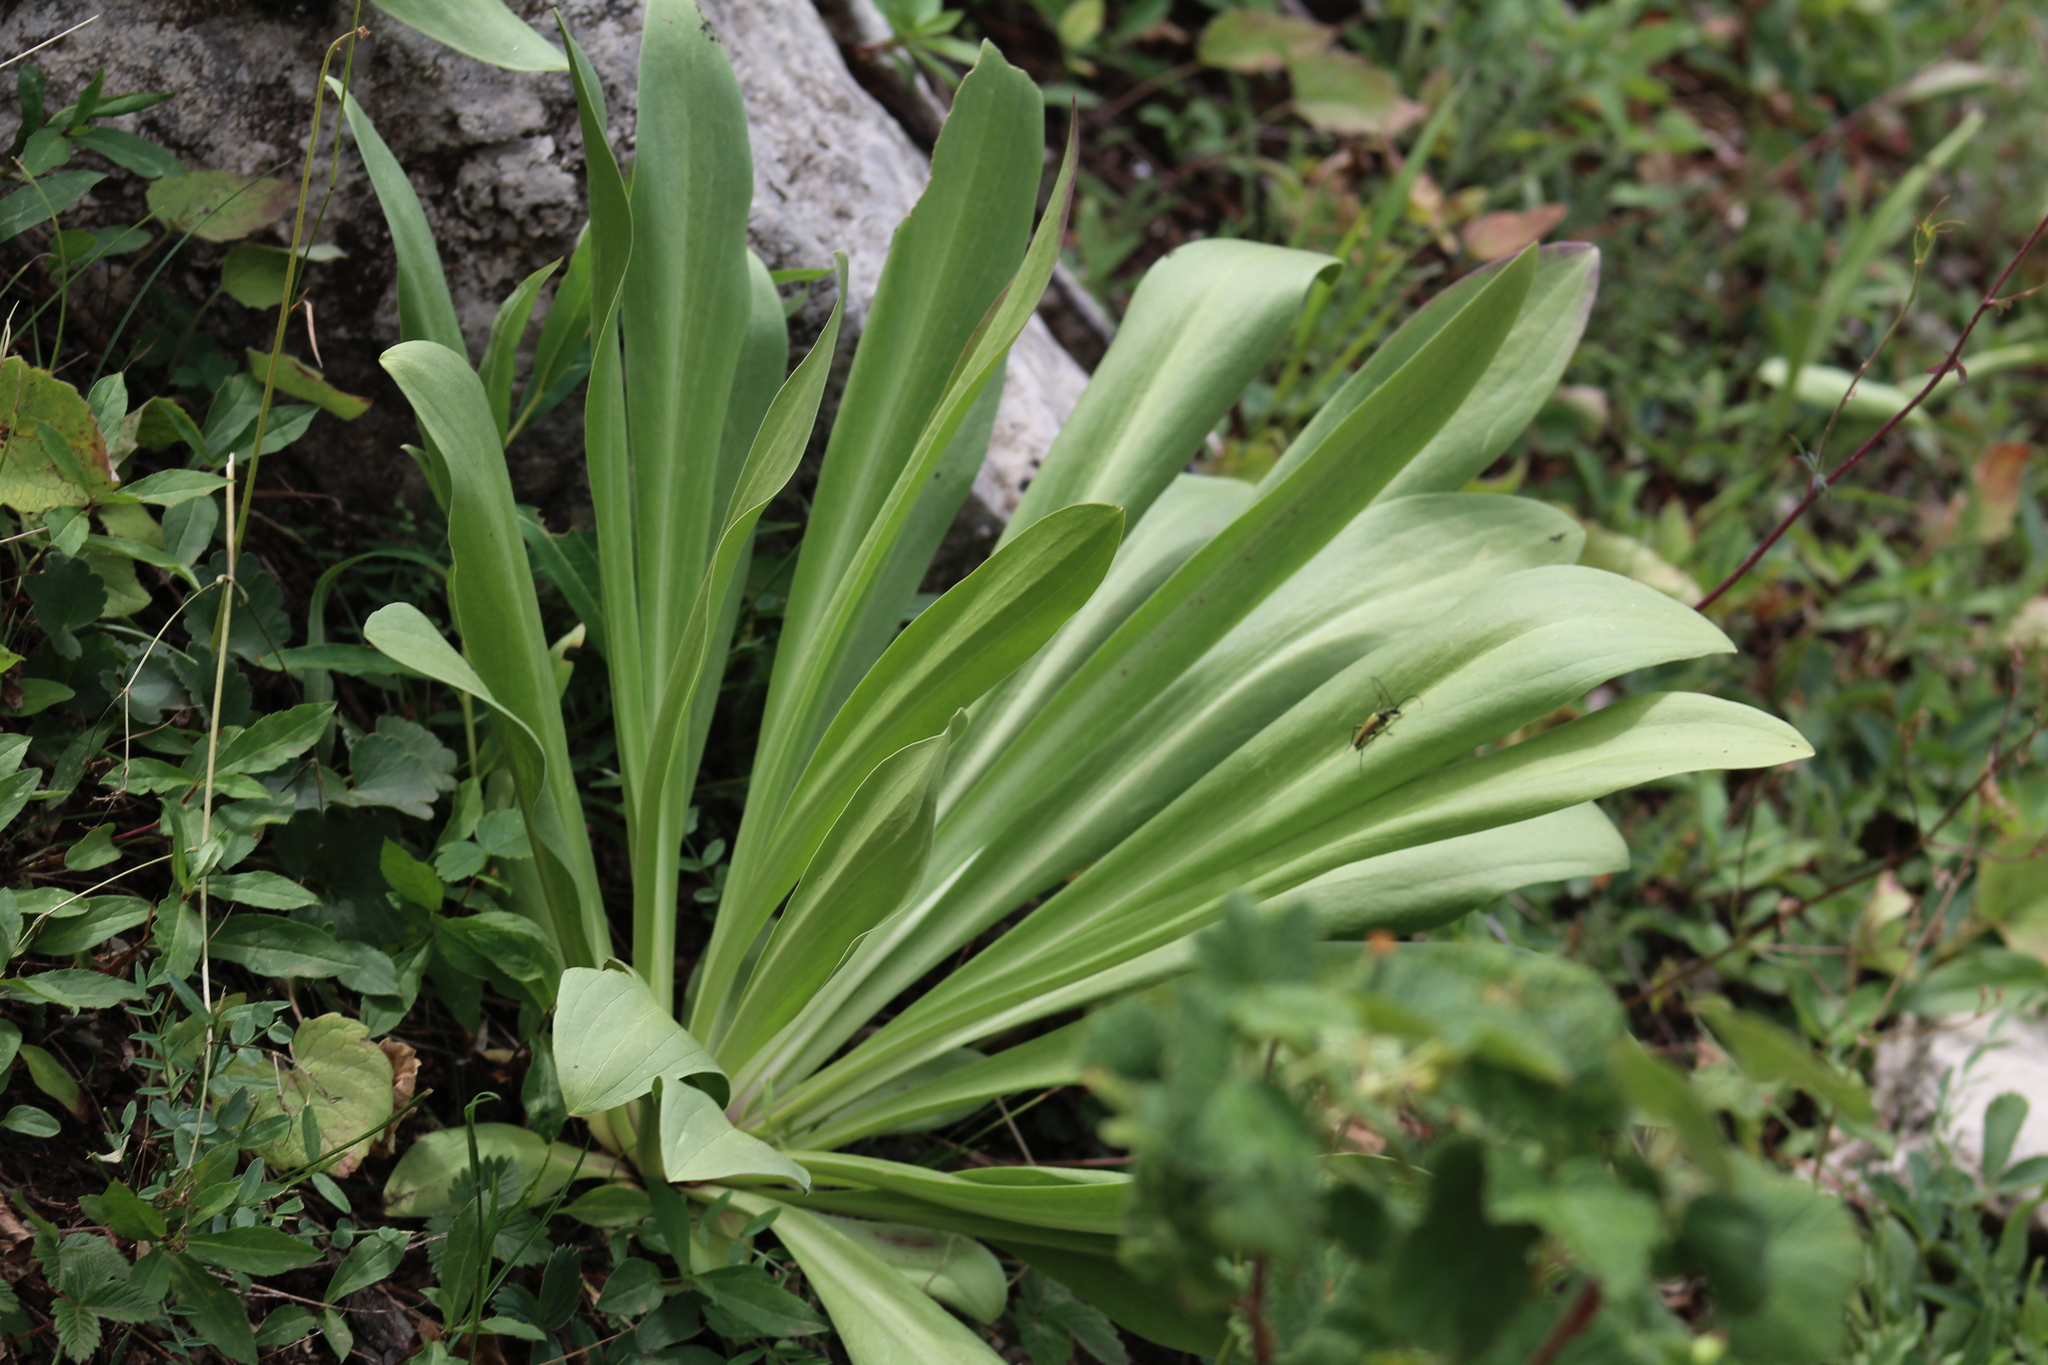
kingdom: Plantae
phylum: Tracheophyta
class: Magnoliopsida
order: Gentianales
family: Gentianaceae
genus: Frasera
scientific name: Frasera speciosa
